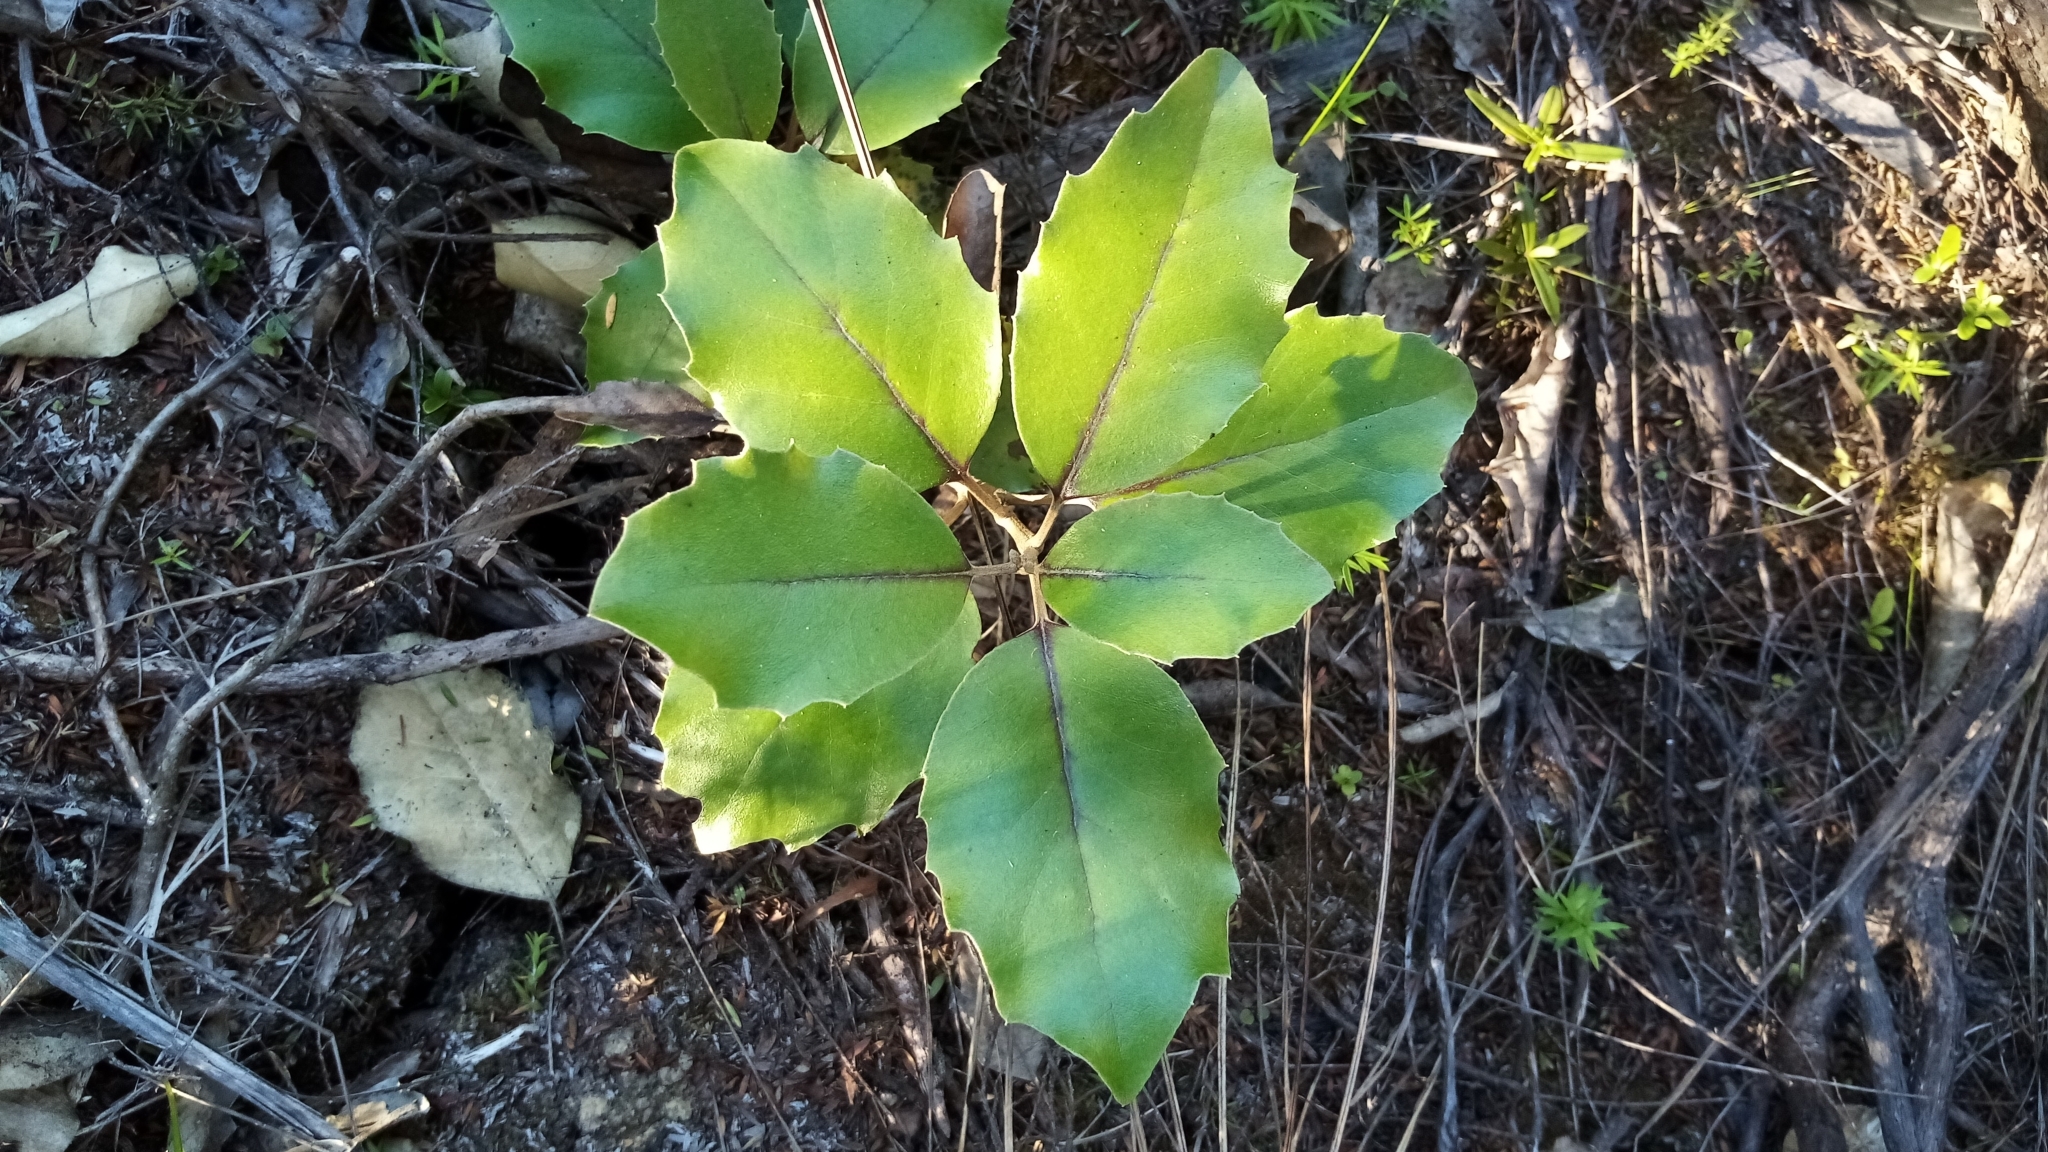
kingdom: Plantae
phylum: Tracheophyta
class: Magnoliopsida
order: Asterales
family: Asteraceae
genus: Olearia
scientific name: Olearia furfuracea
